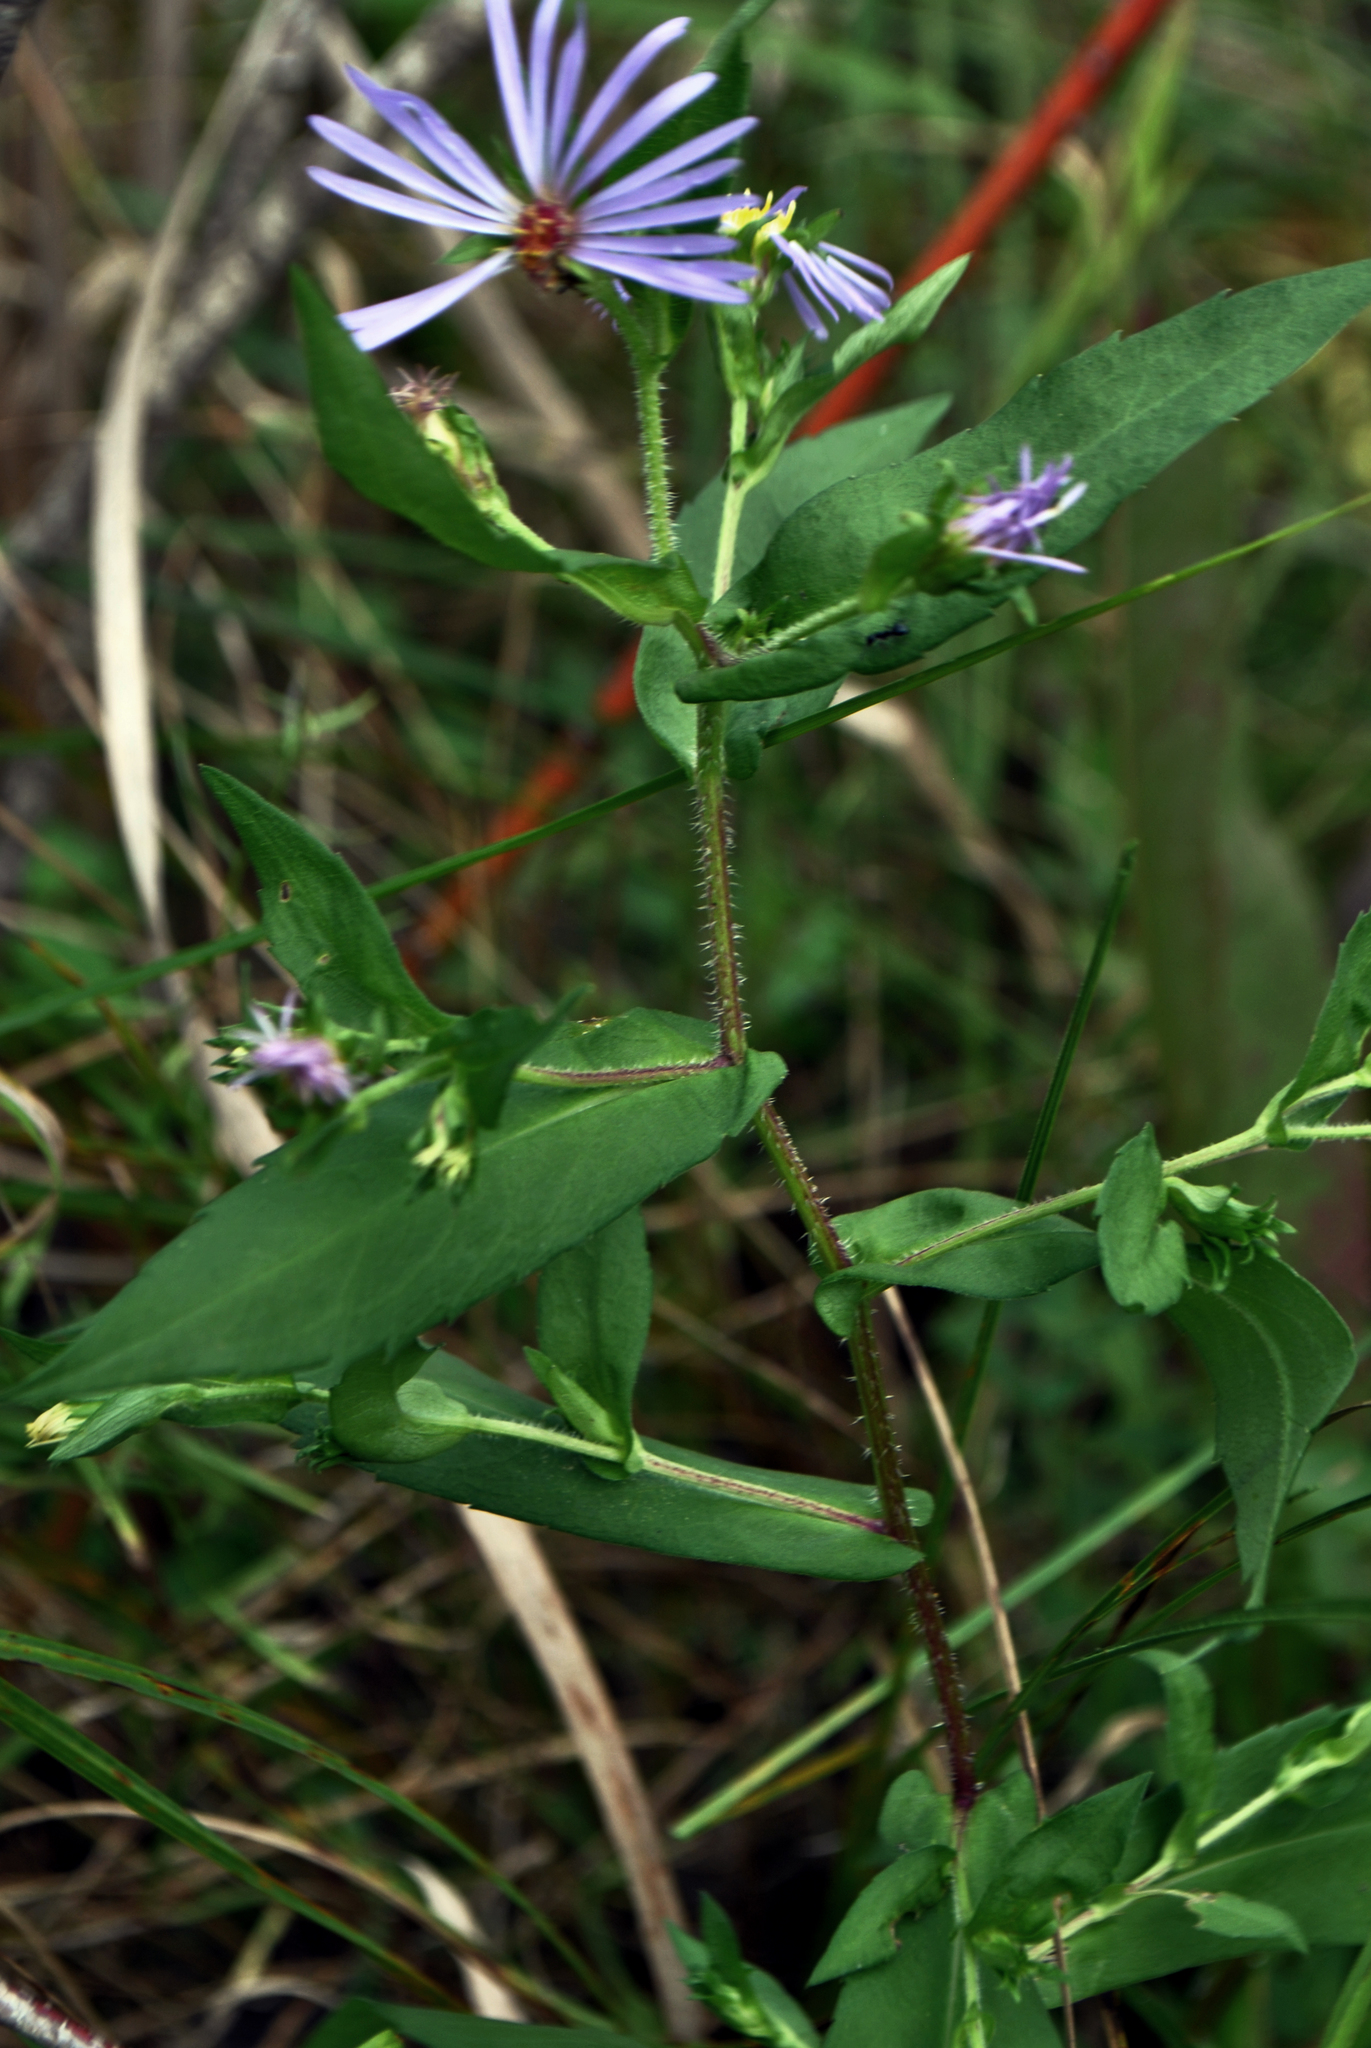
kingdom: Plantae
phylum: Tracheophyta
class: Magnoliopsida
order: Asterales
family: Asteraceae
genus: Symphyotrichum
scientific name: Symphyotrichum prenanthoides
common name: Crooked-stem aster
